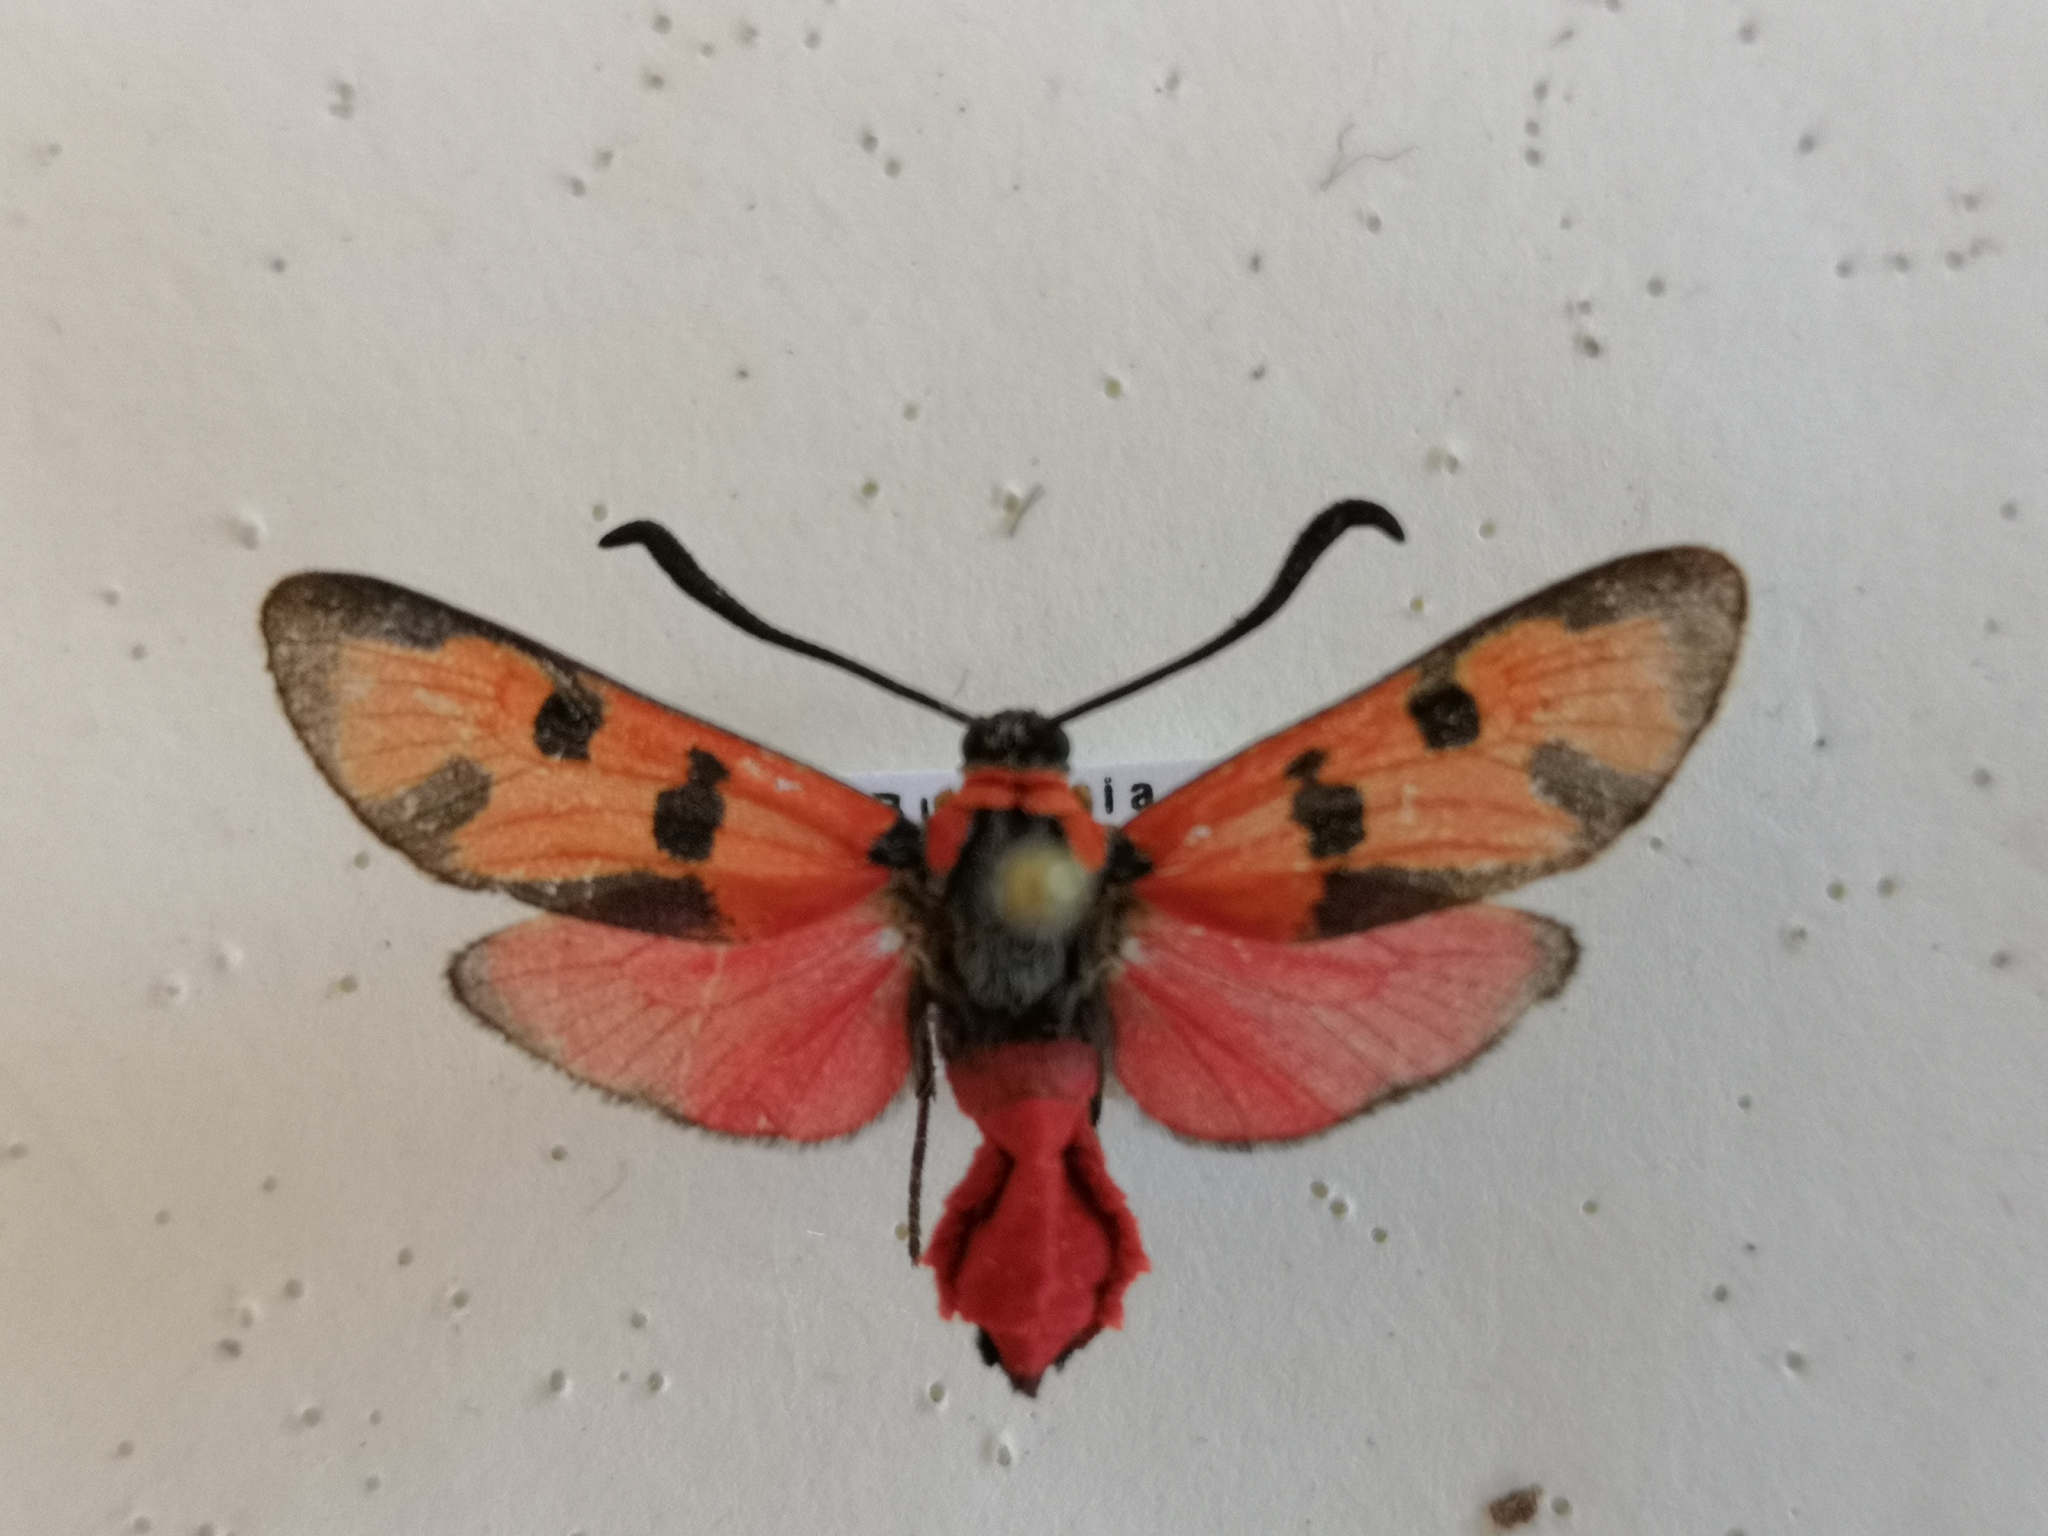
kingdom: Animalia
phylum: Arthropoda
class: Insecta
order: Lepidoptera
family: Zygaenidae
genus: Zygaena
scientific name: Zygaena laeta
